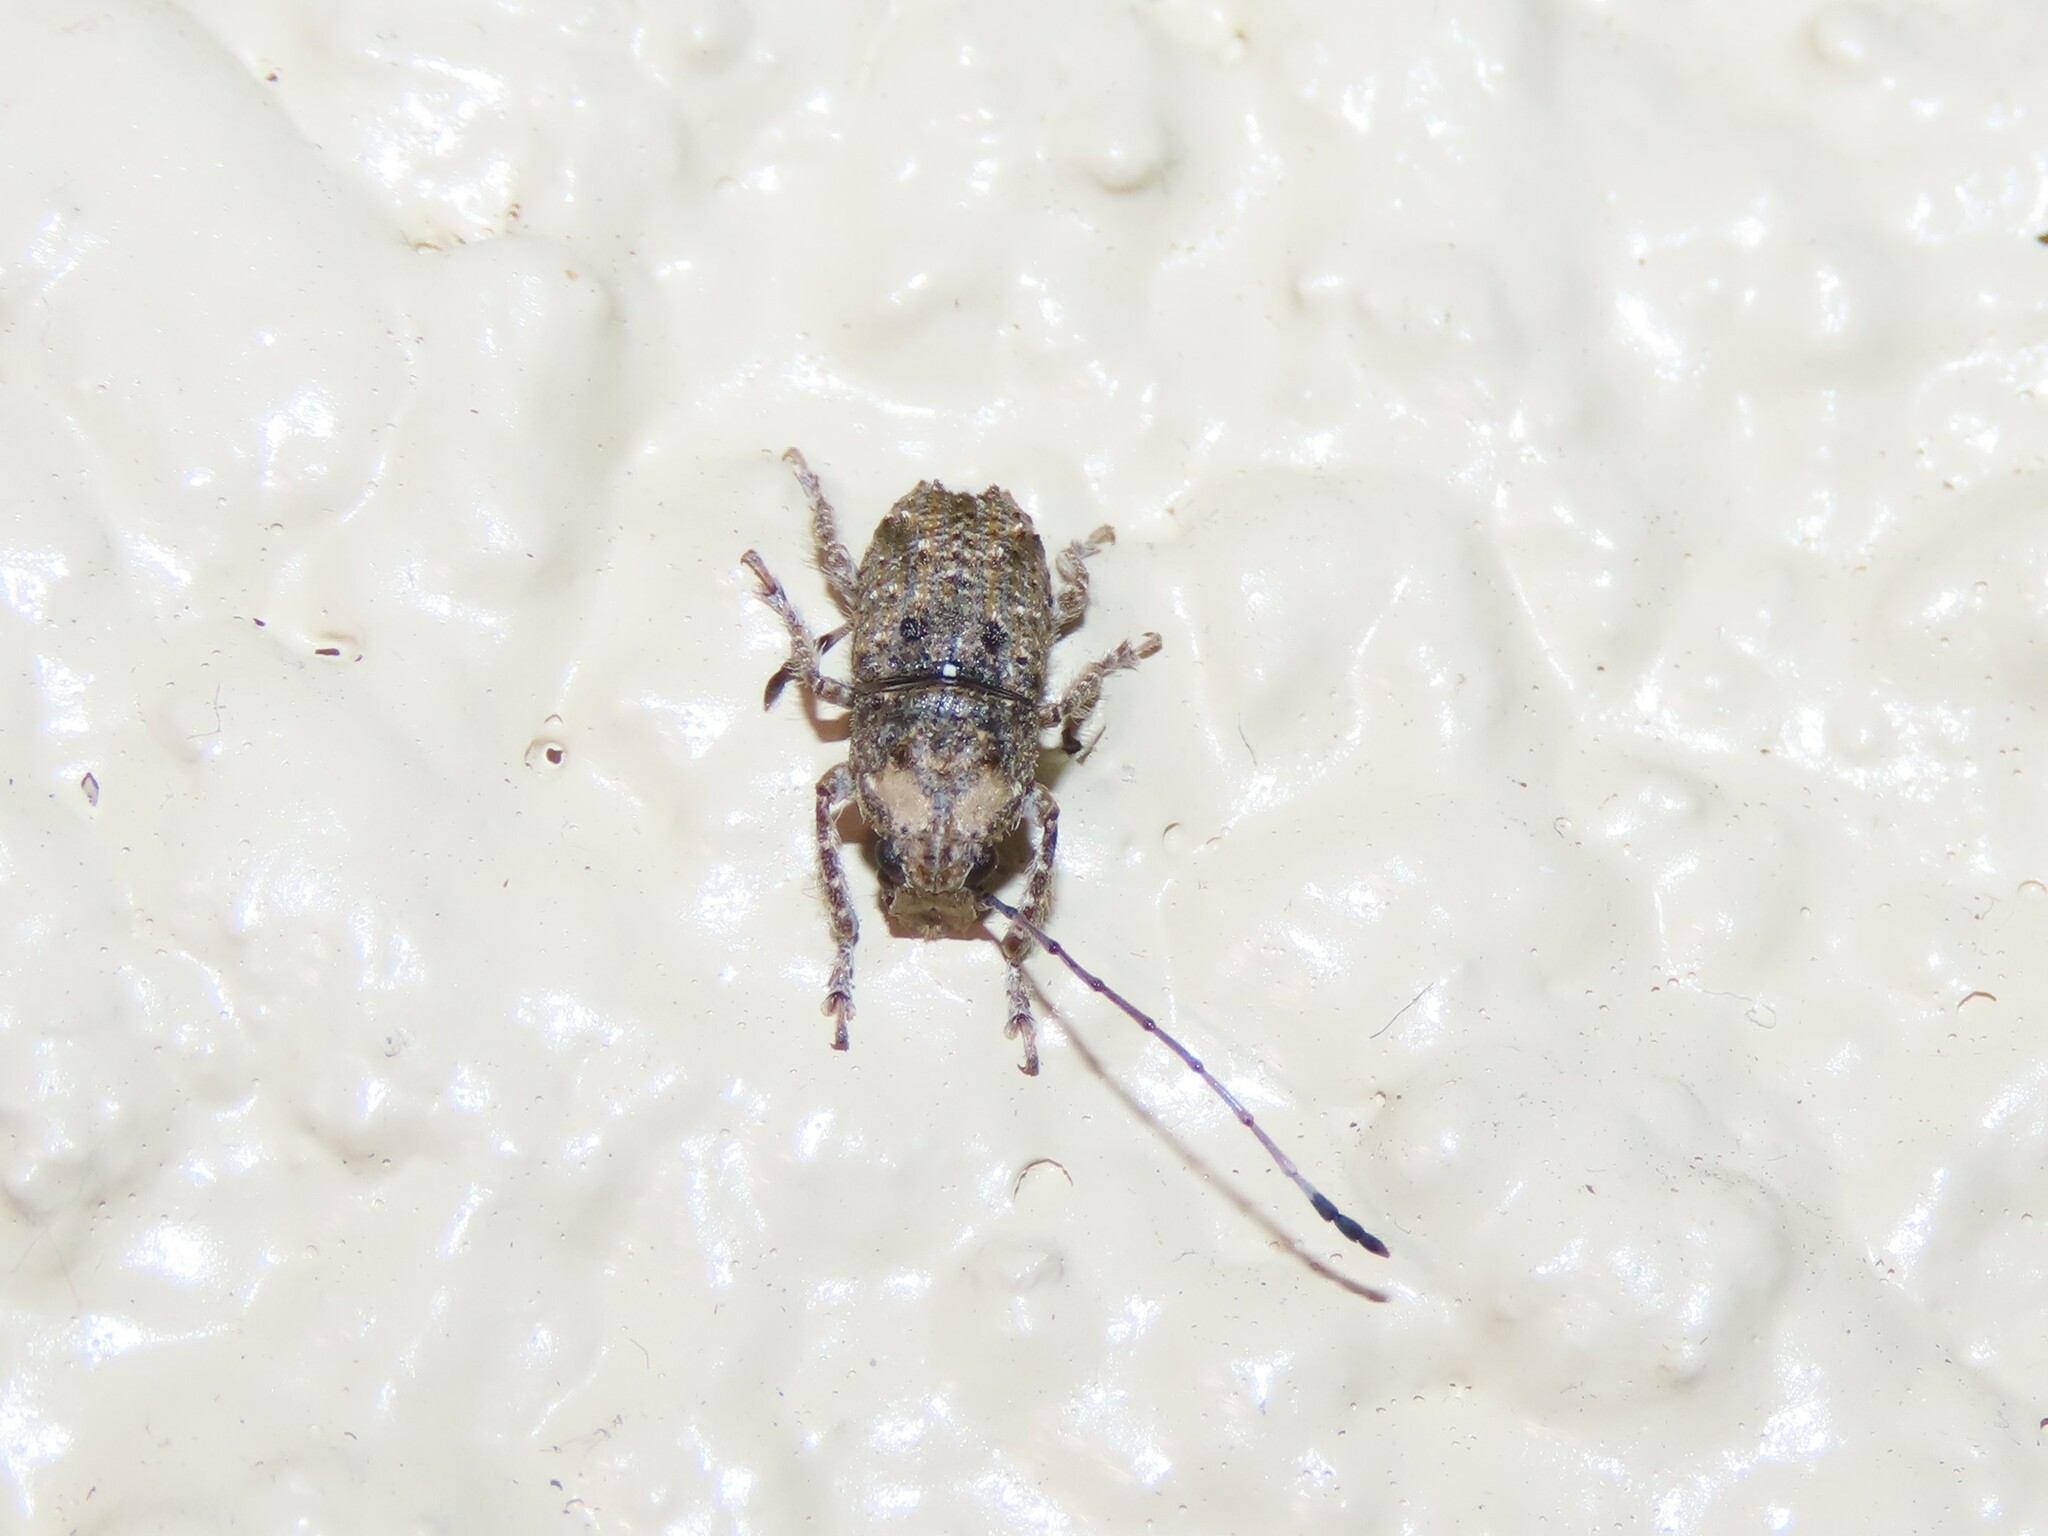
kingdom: Animalia
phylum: Arthropoda
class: Insecta
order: Coleoptera
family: Anthribidae
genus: Toxonotus
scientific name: Toxonotus fascicularis
